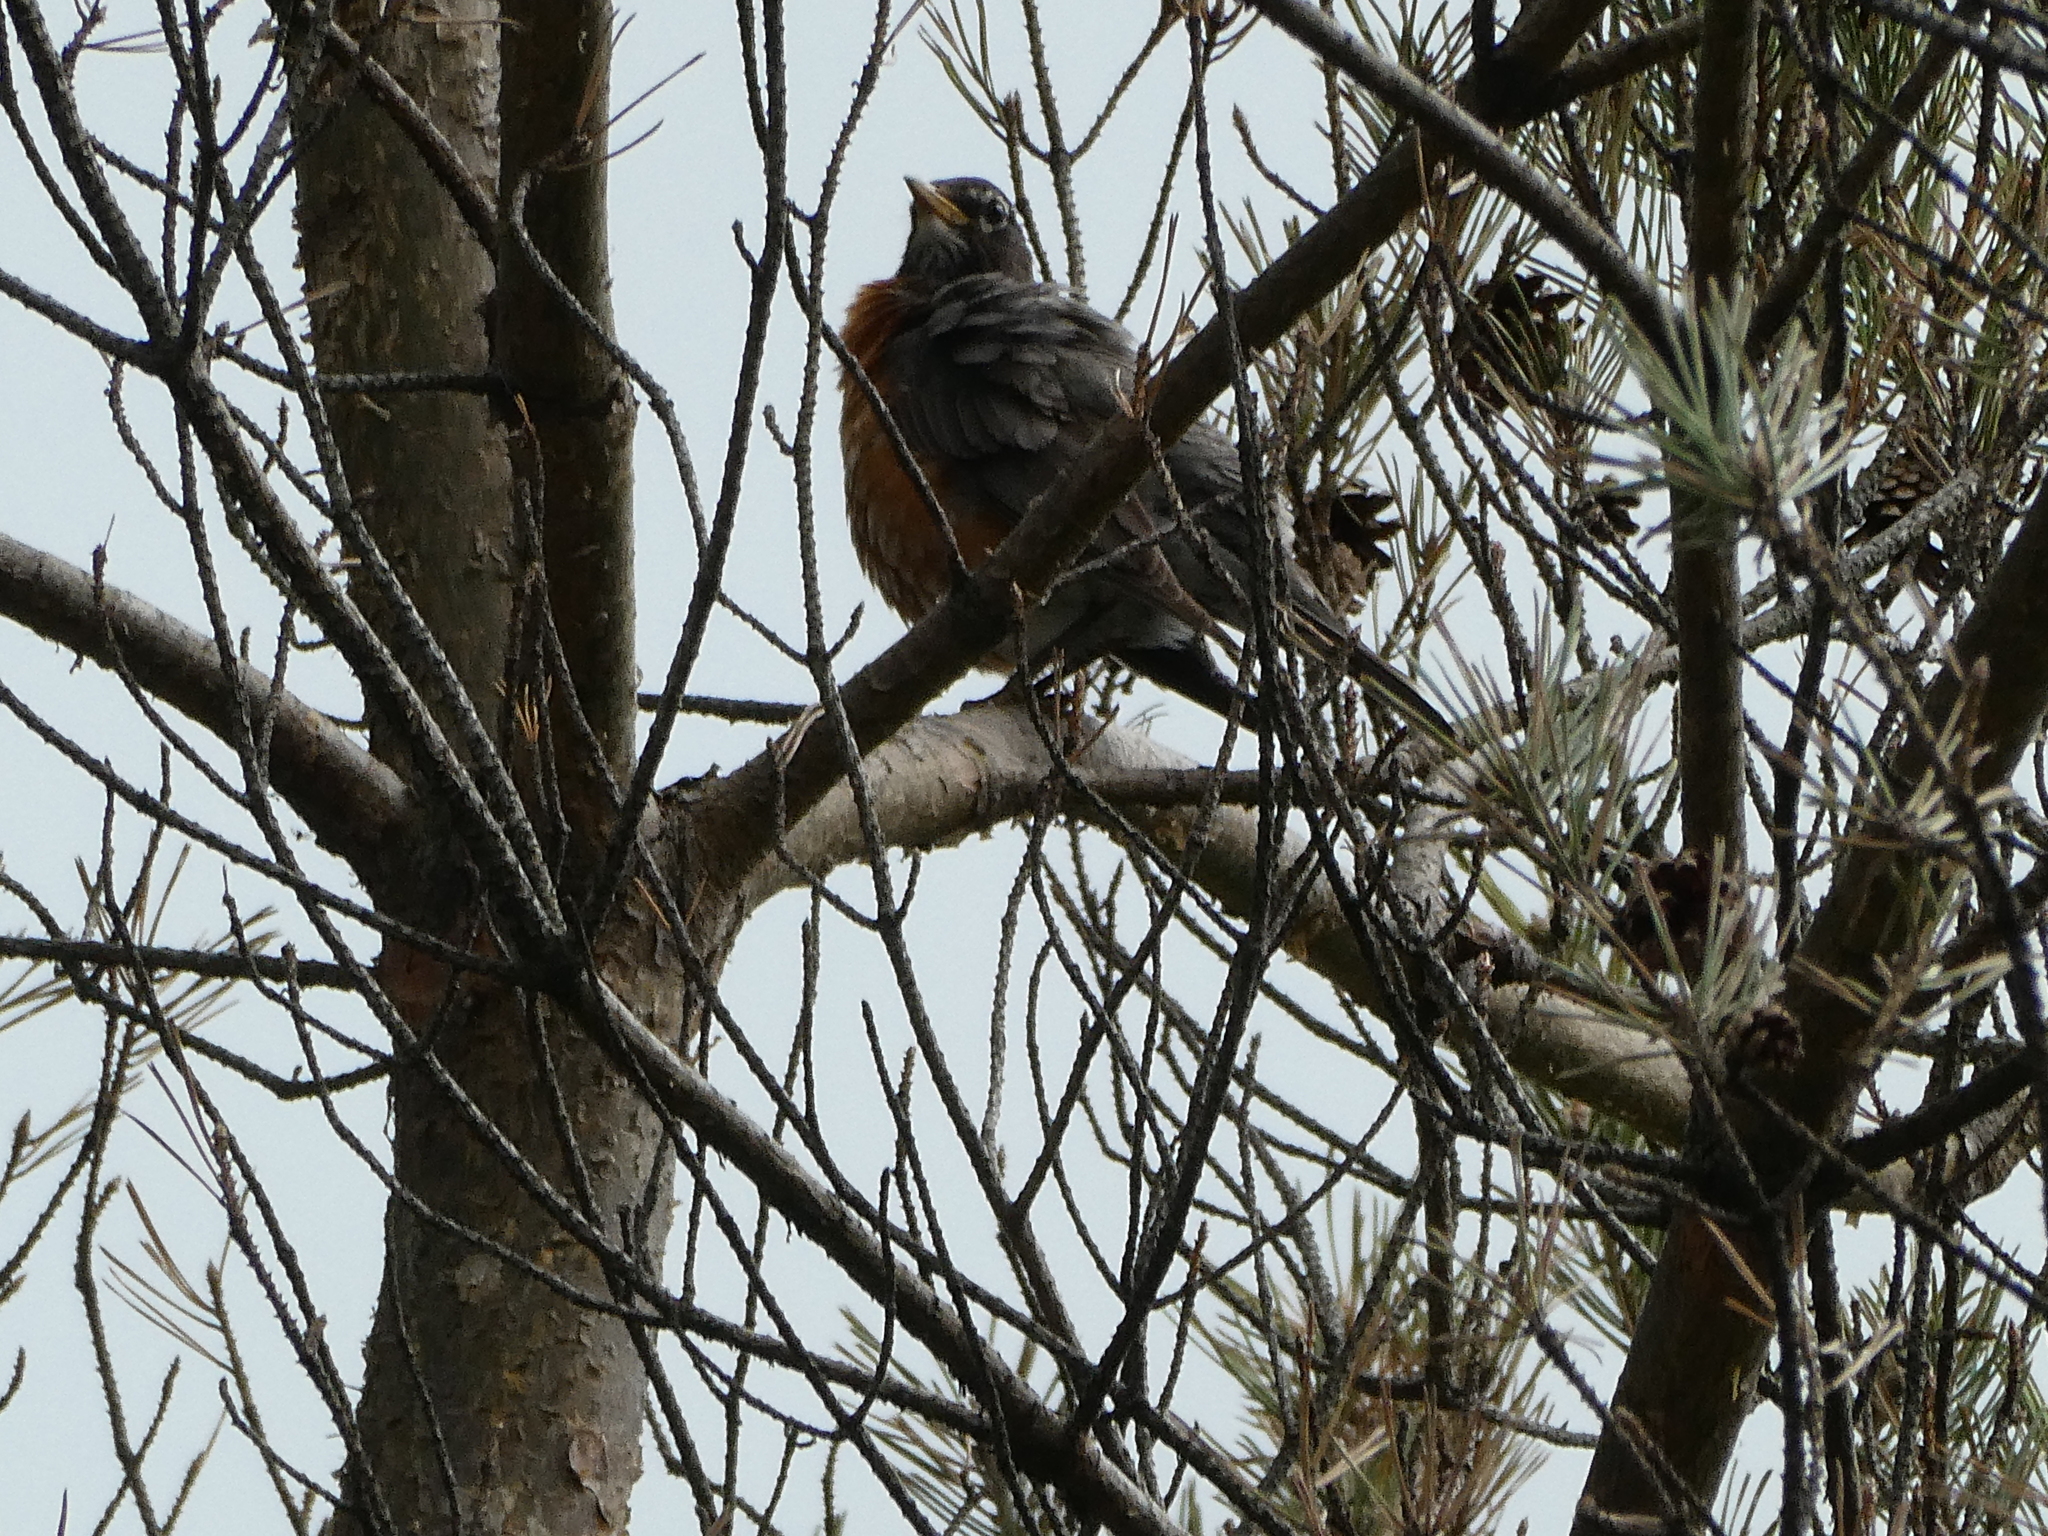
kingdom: Animalia
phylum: Chordata
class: Aves
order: Passeriformes
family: Turdidae
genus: Turdus
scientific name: Turdus migratorius
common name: American robin
